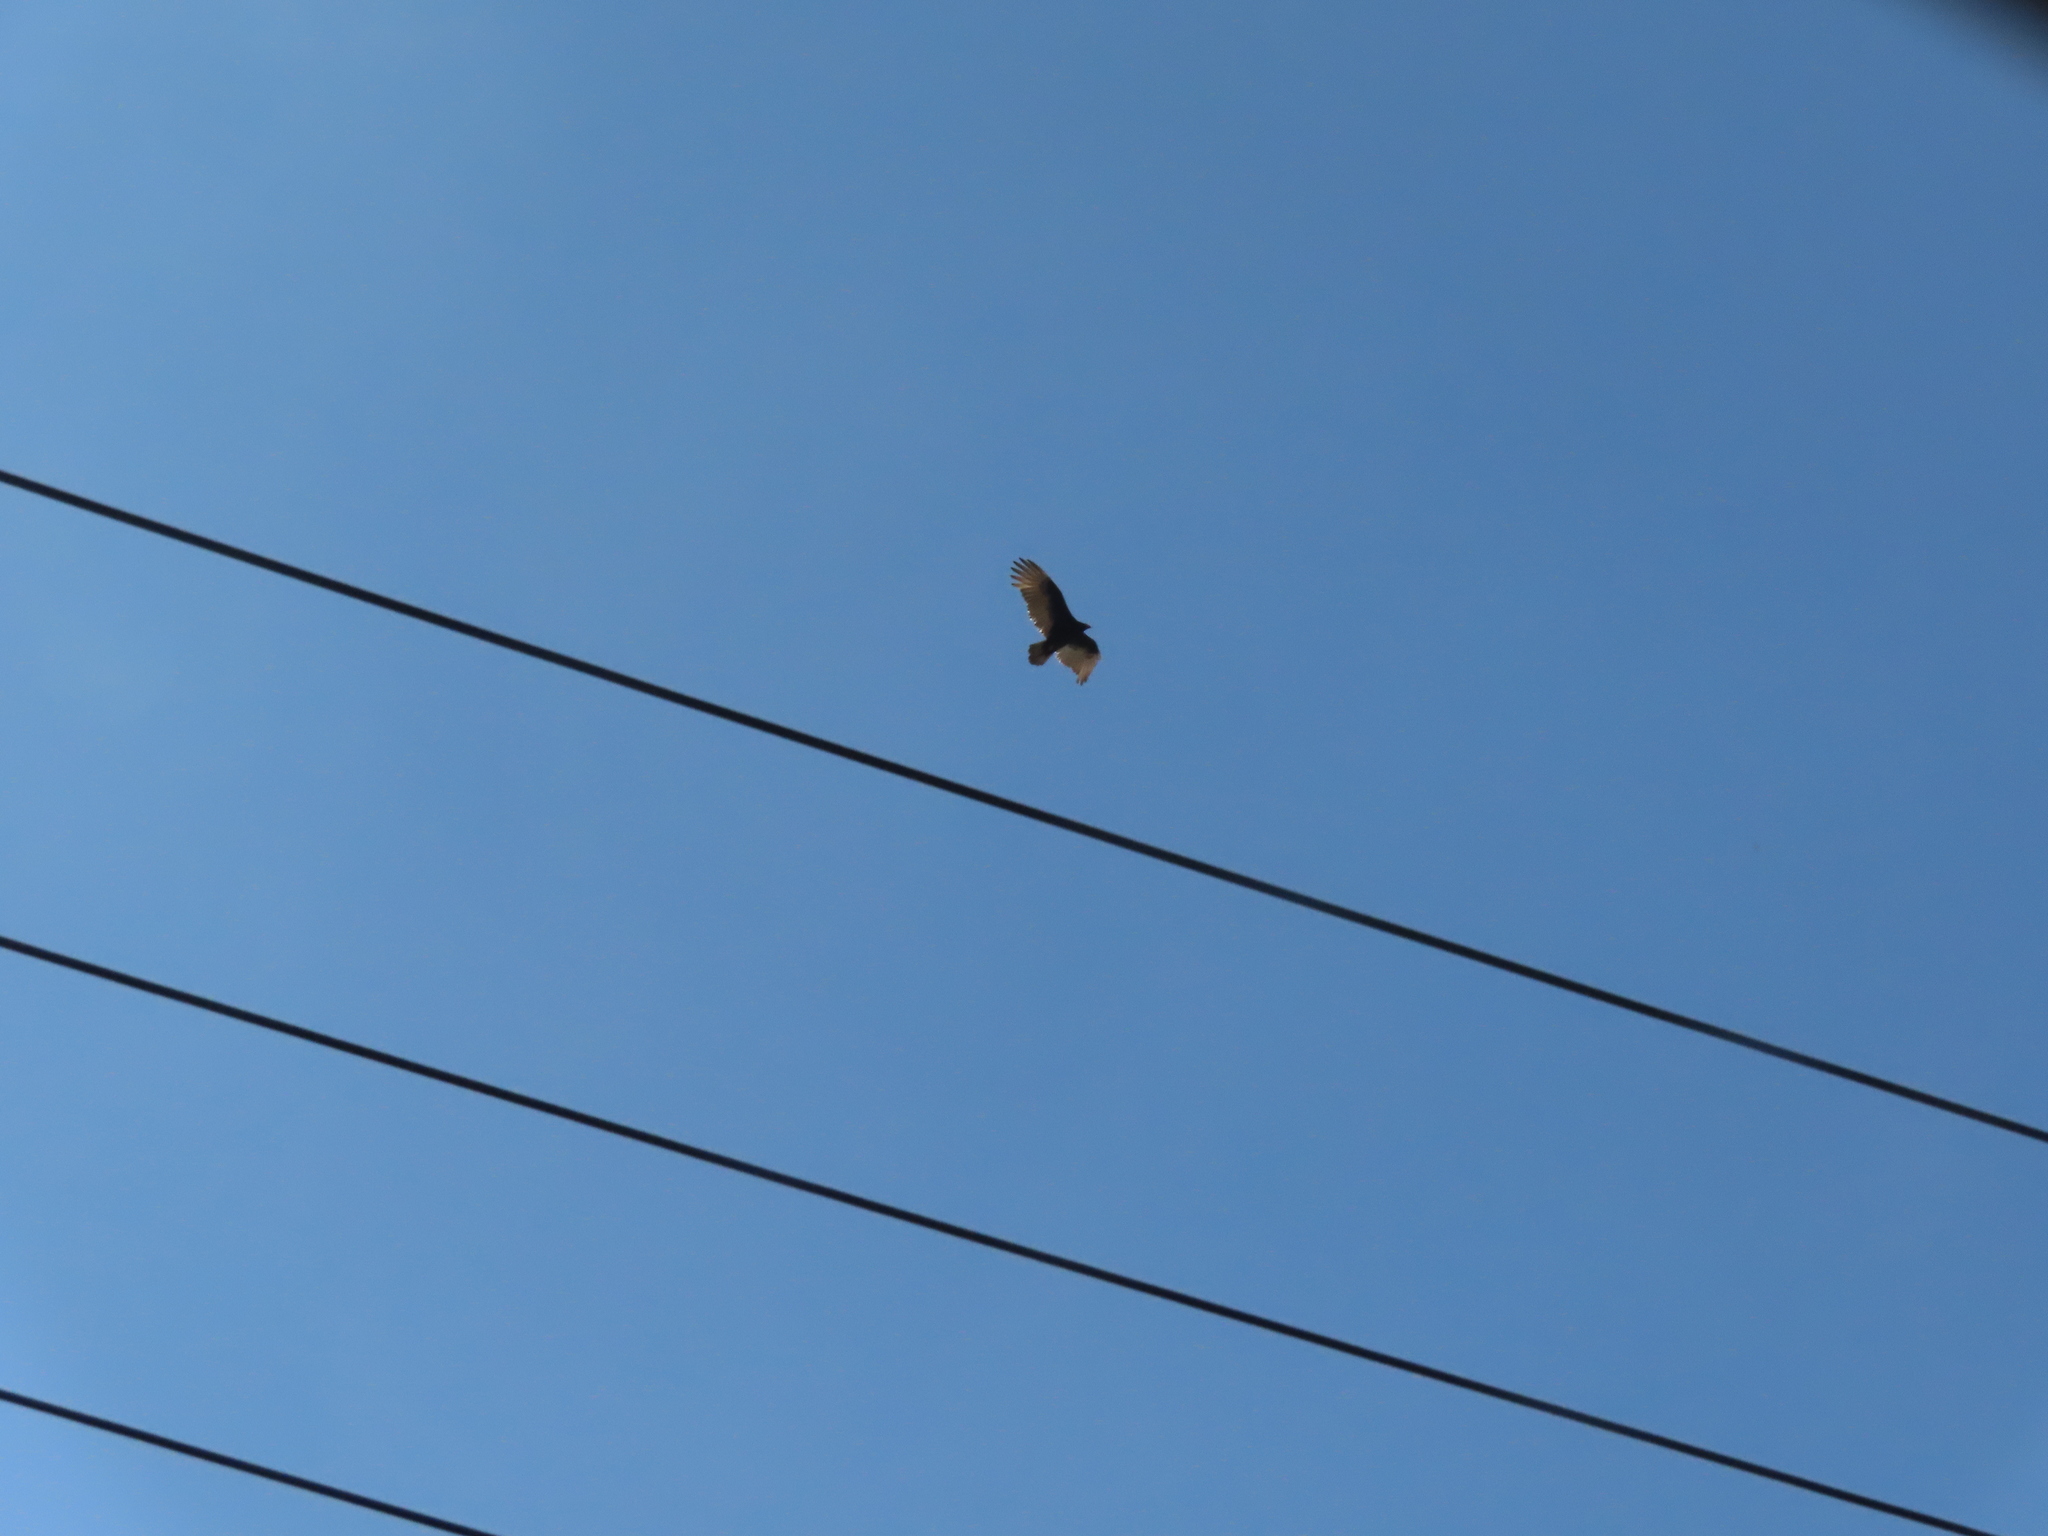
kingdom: Animalia
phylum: Chordata
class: Aves
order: Accipitriformes
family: Cathartidae
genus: Cathartes
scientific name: Cathartes aura
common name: Turkey vulture
